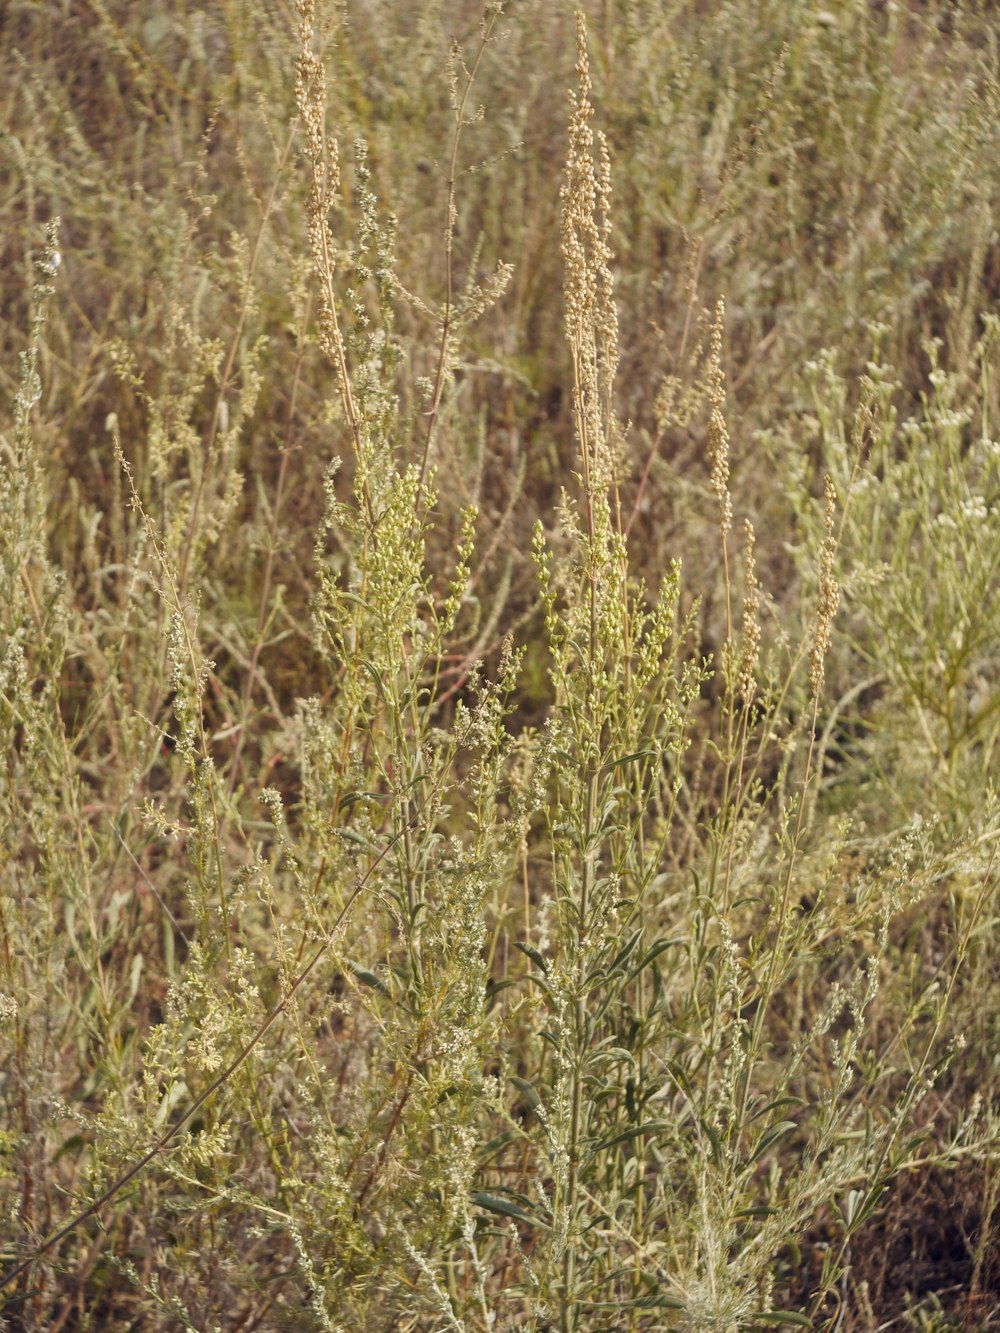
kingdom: Plantae
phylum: Tracheophyta
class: Magnoliopsida
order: Caryophyllales
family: Caryophyllaceae
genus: Silene
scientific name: Silene borysthenica
